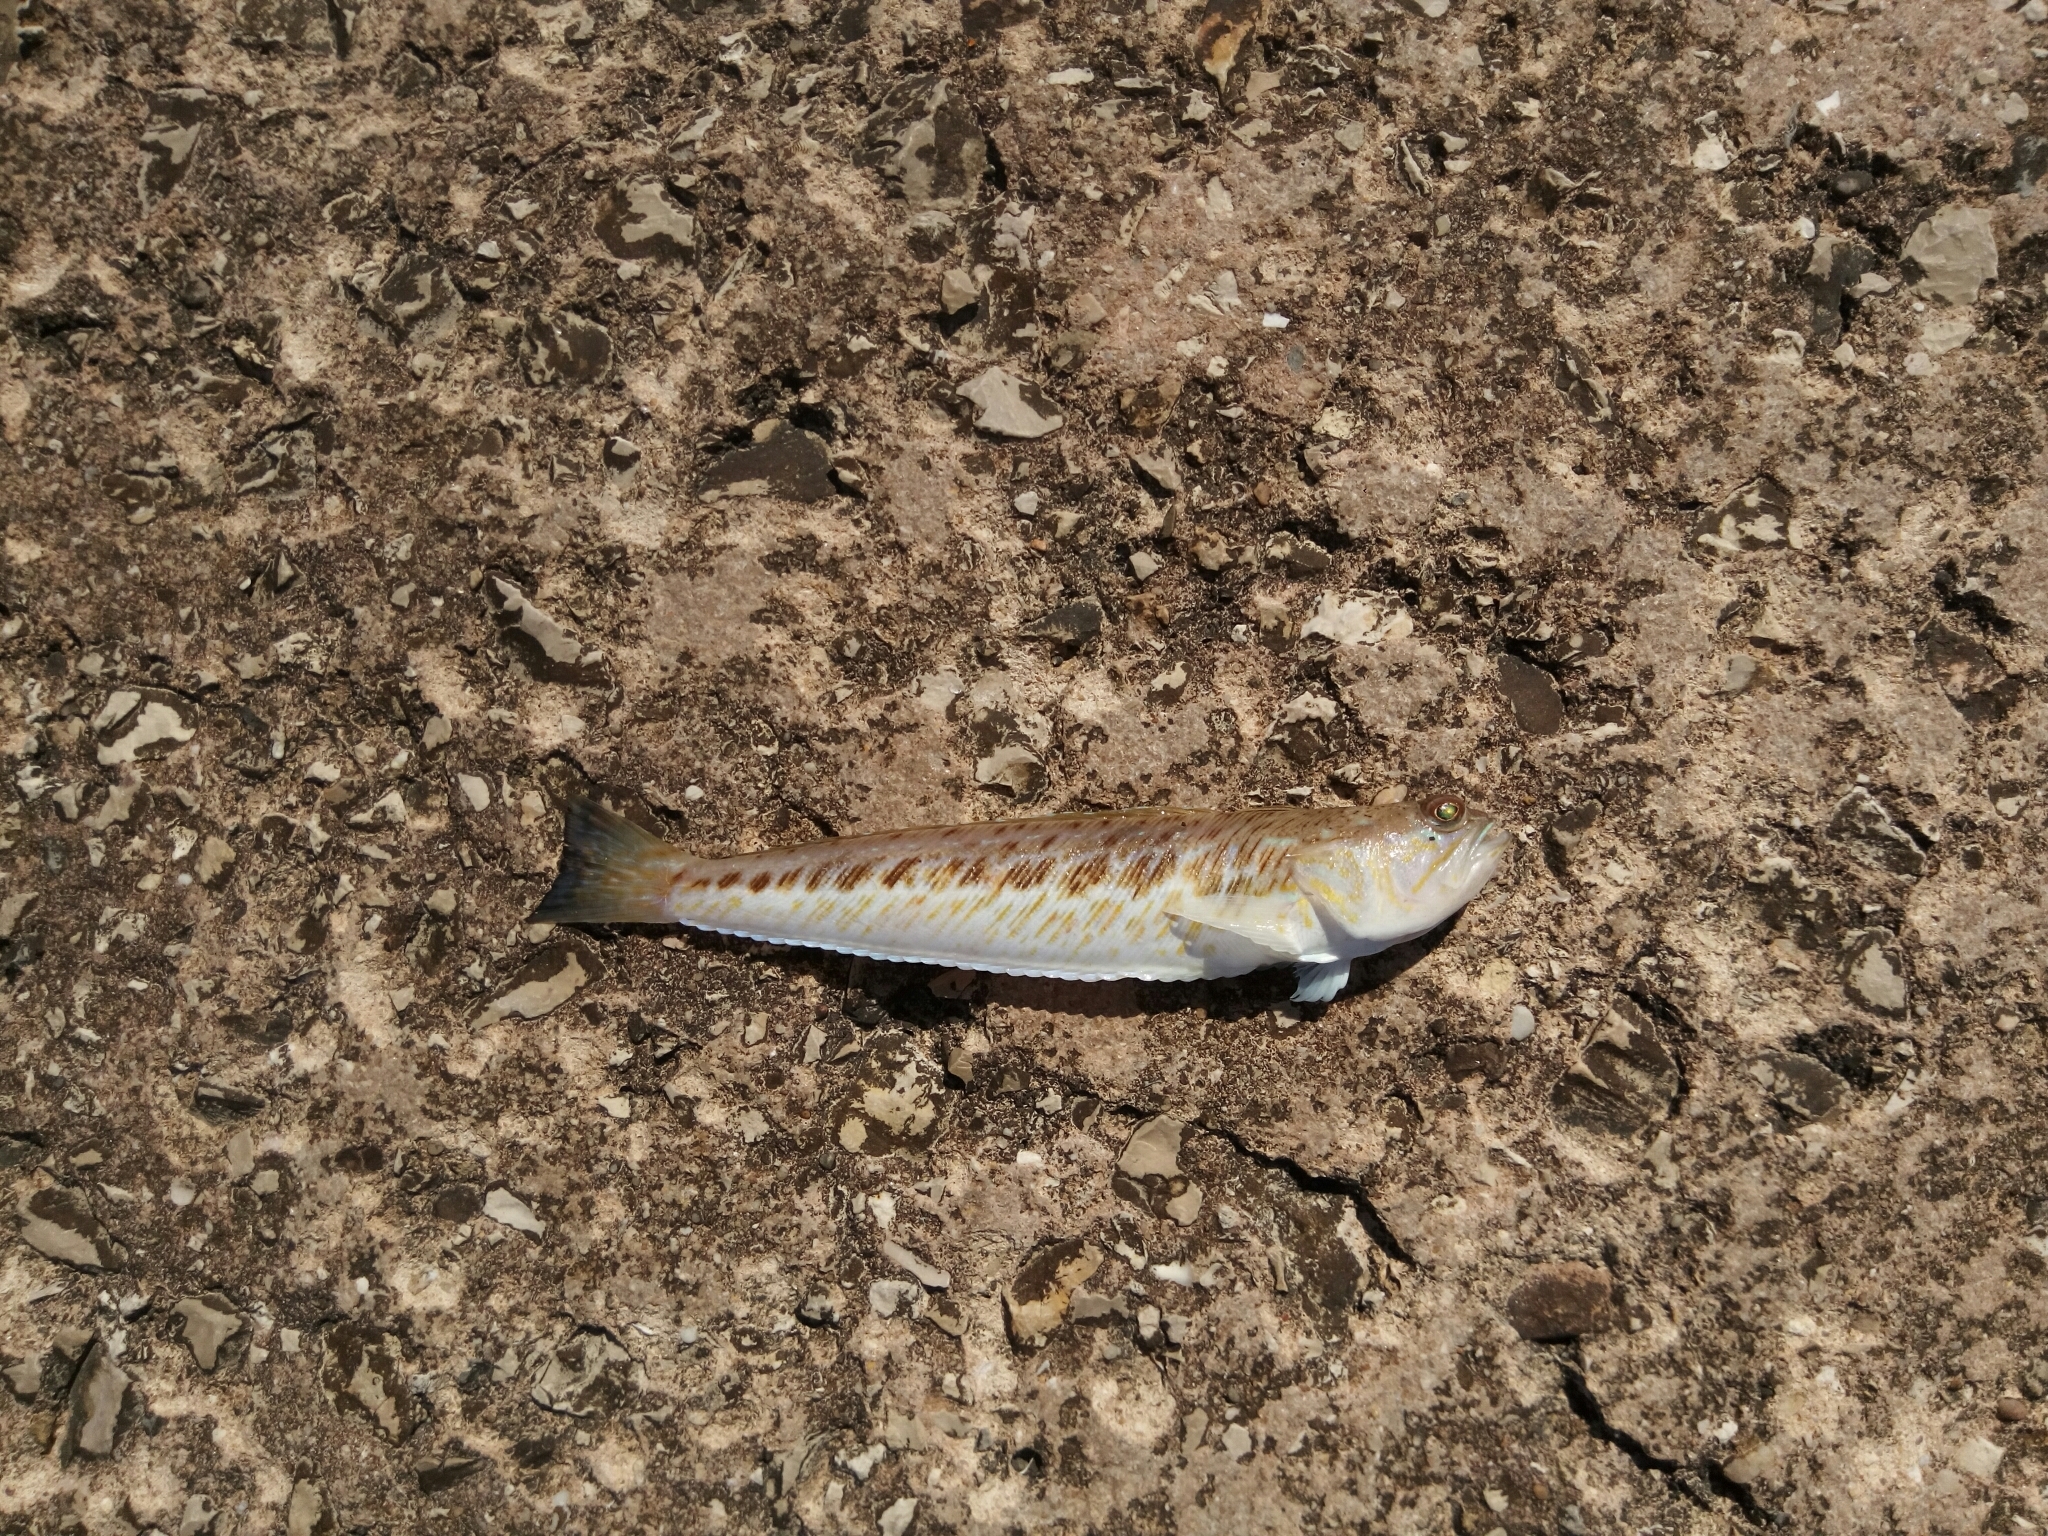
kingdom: Animalia
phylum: Chordata
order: Perciformes
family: Trachinidae
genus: Trachinus
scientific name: Trachinus draco
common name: Greater weever
